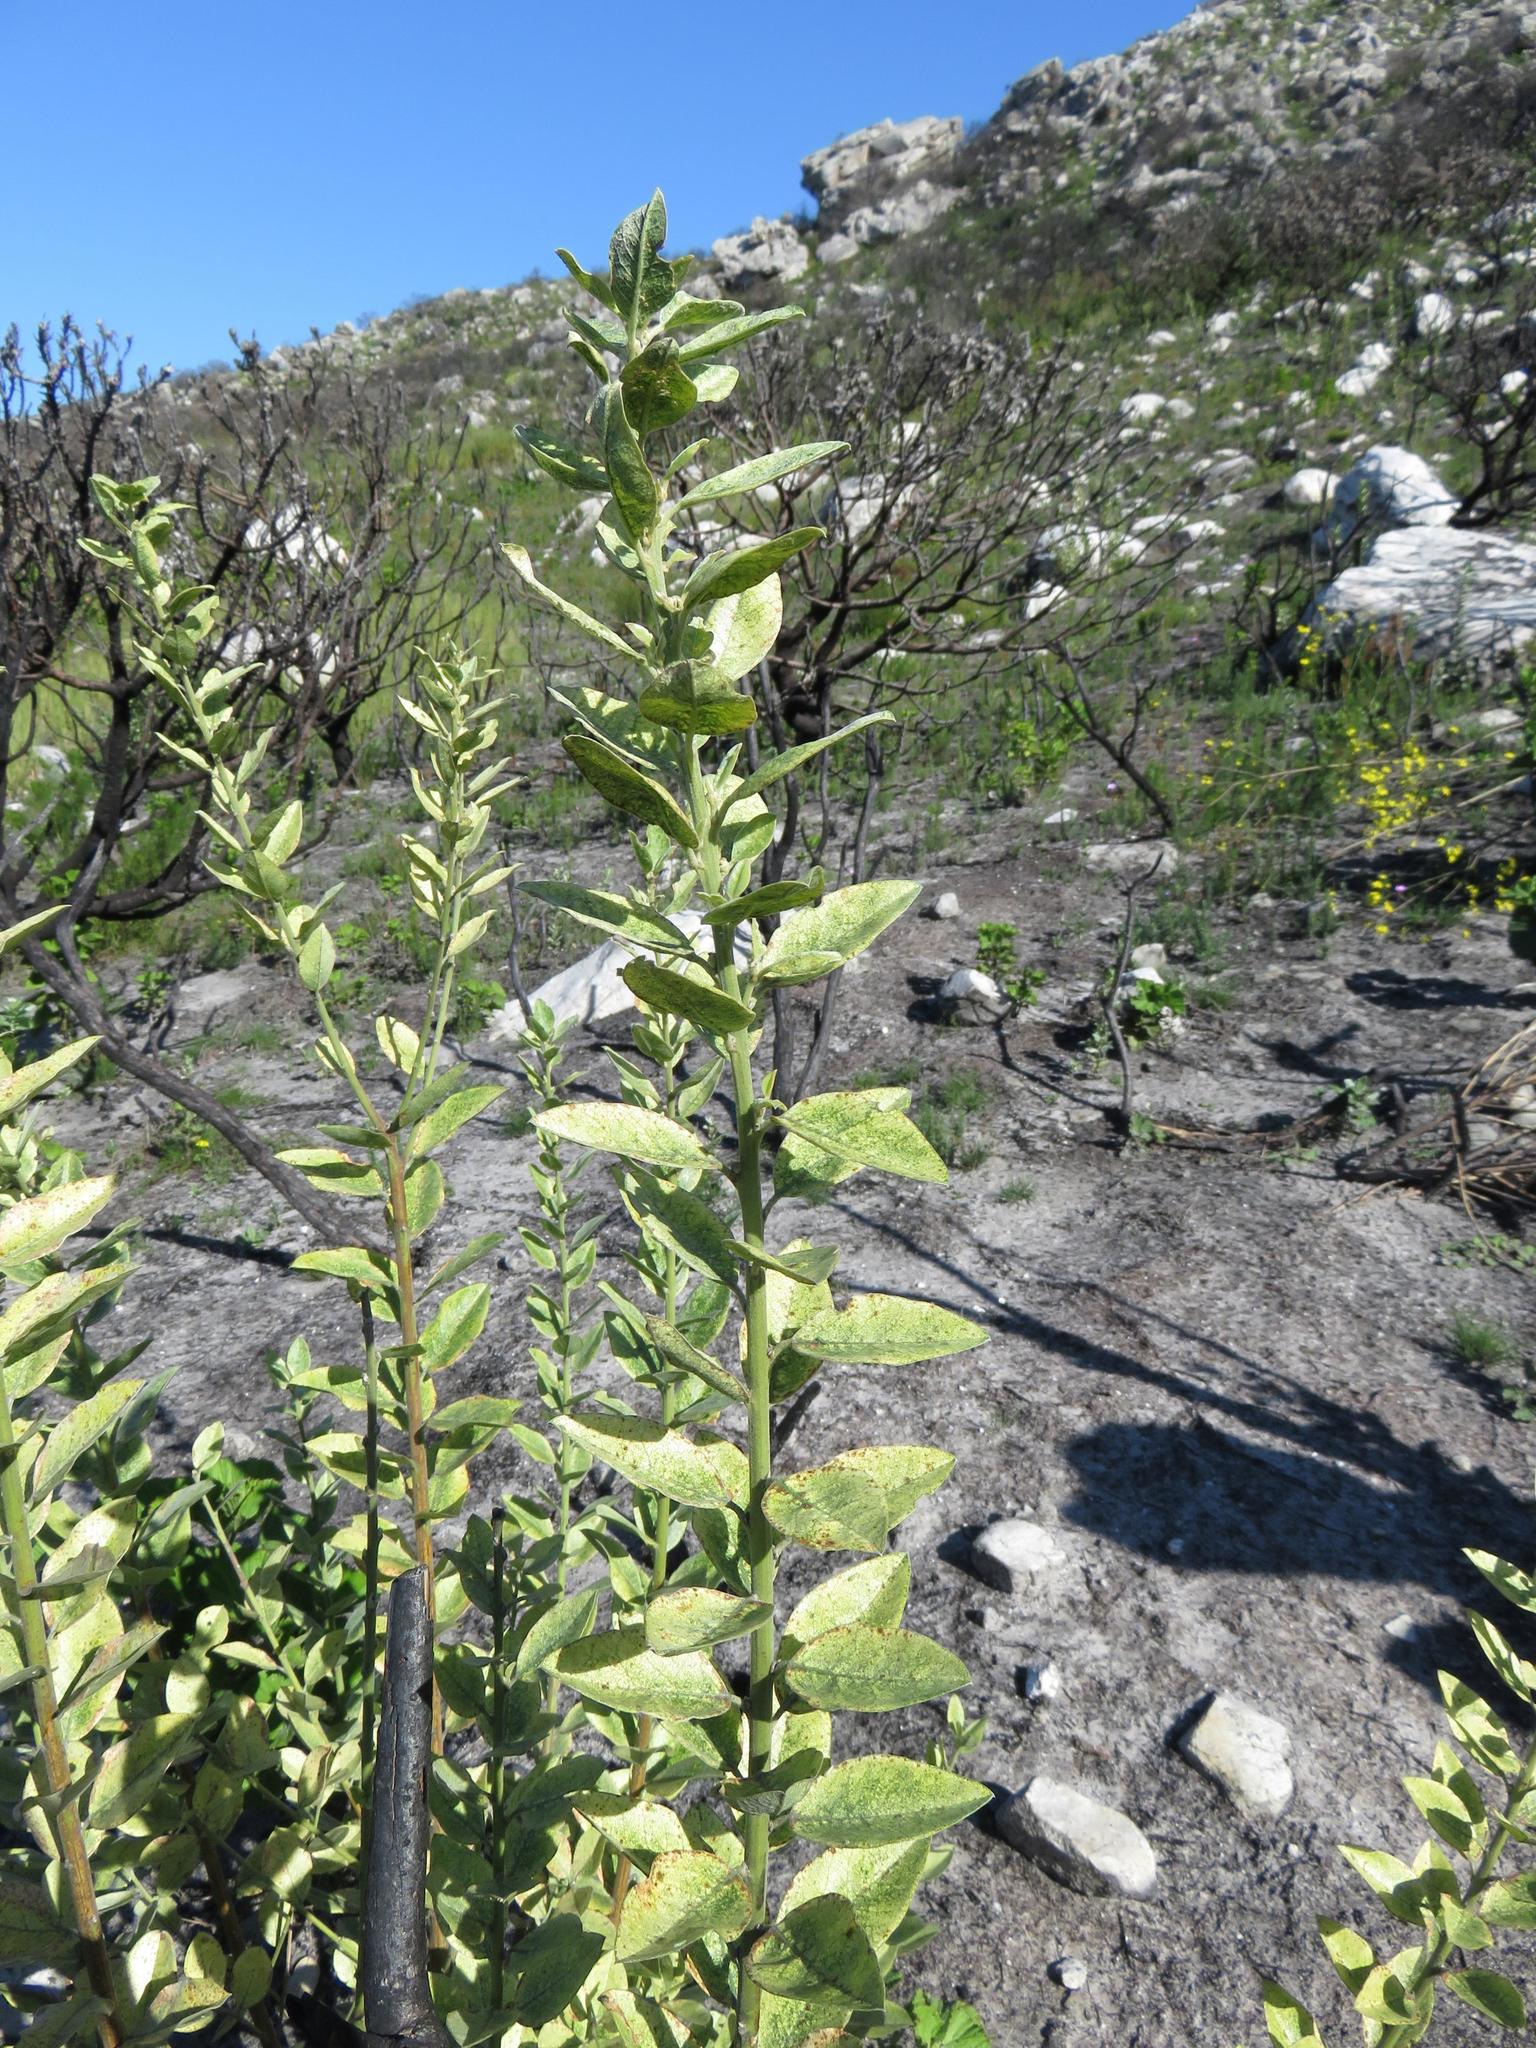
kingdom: Plantae
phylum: Tracheophyta
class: Magnoliopsida
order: Fabales
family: Fabaceae
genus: Podalyria
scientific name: Podalyria calyptrata
